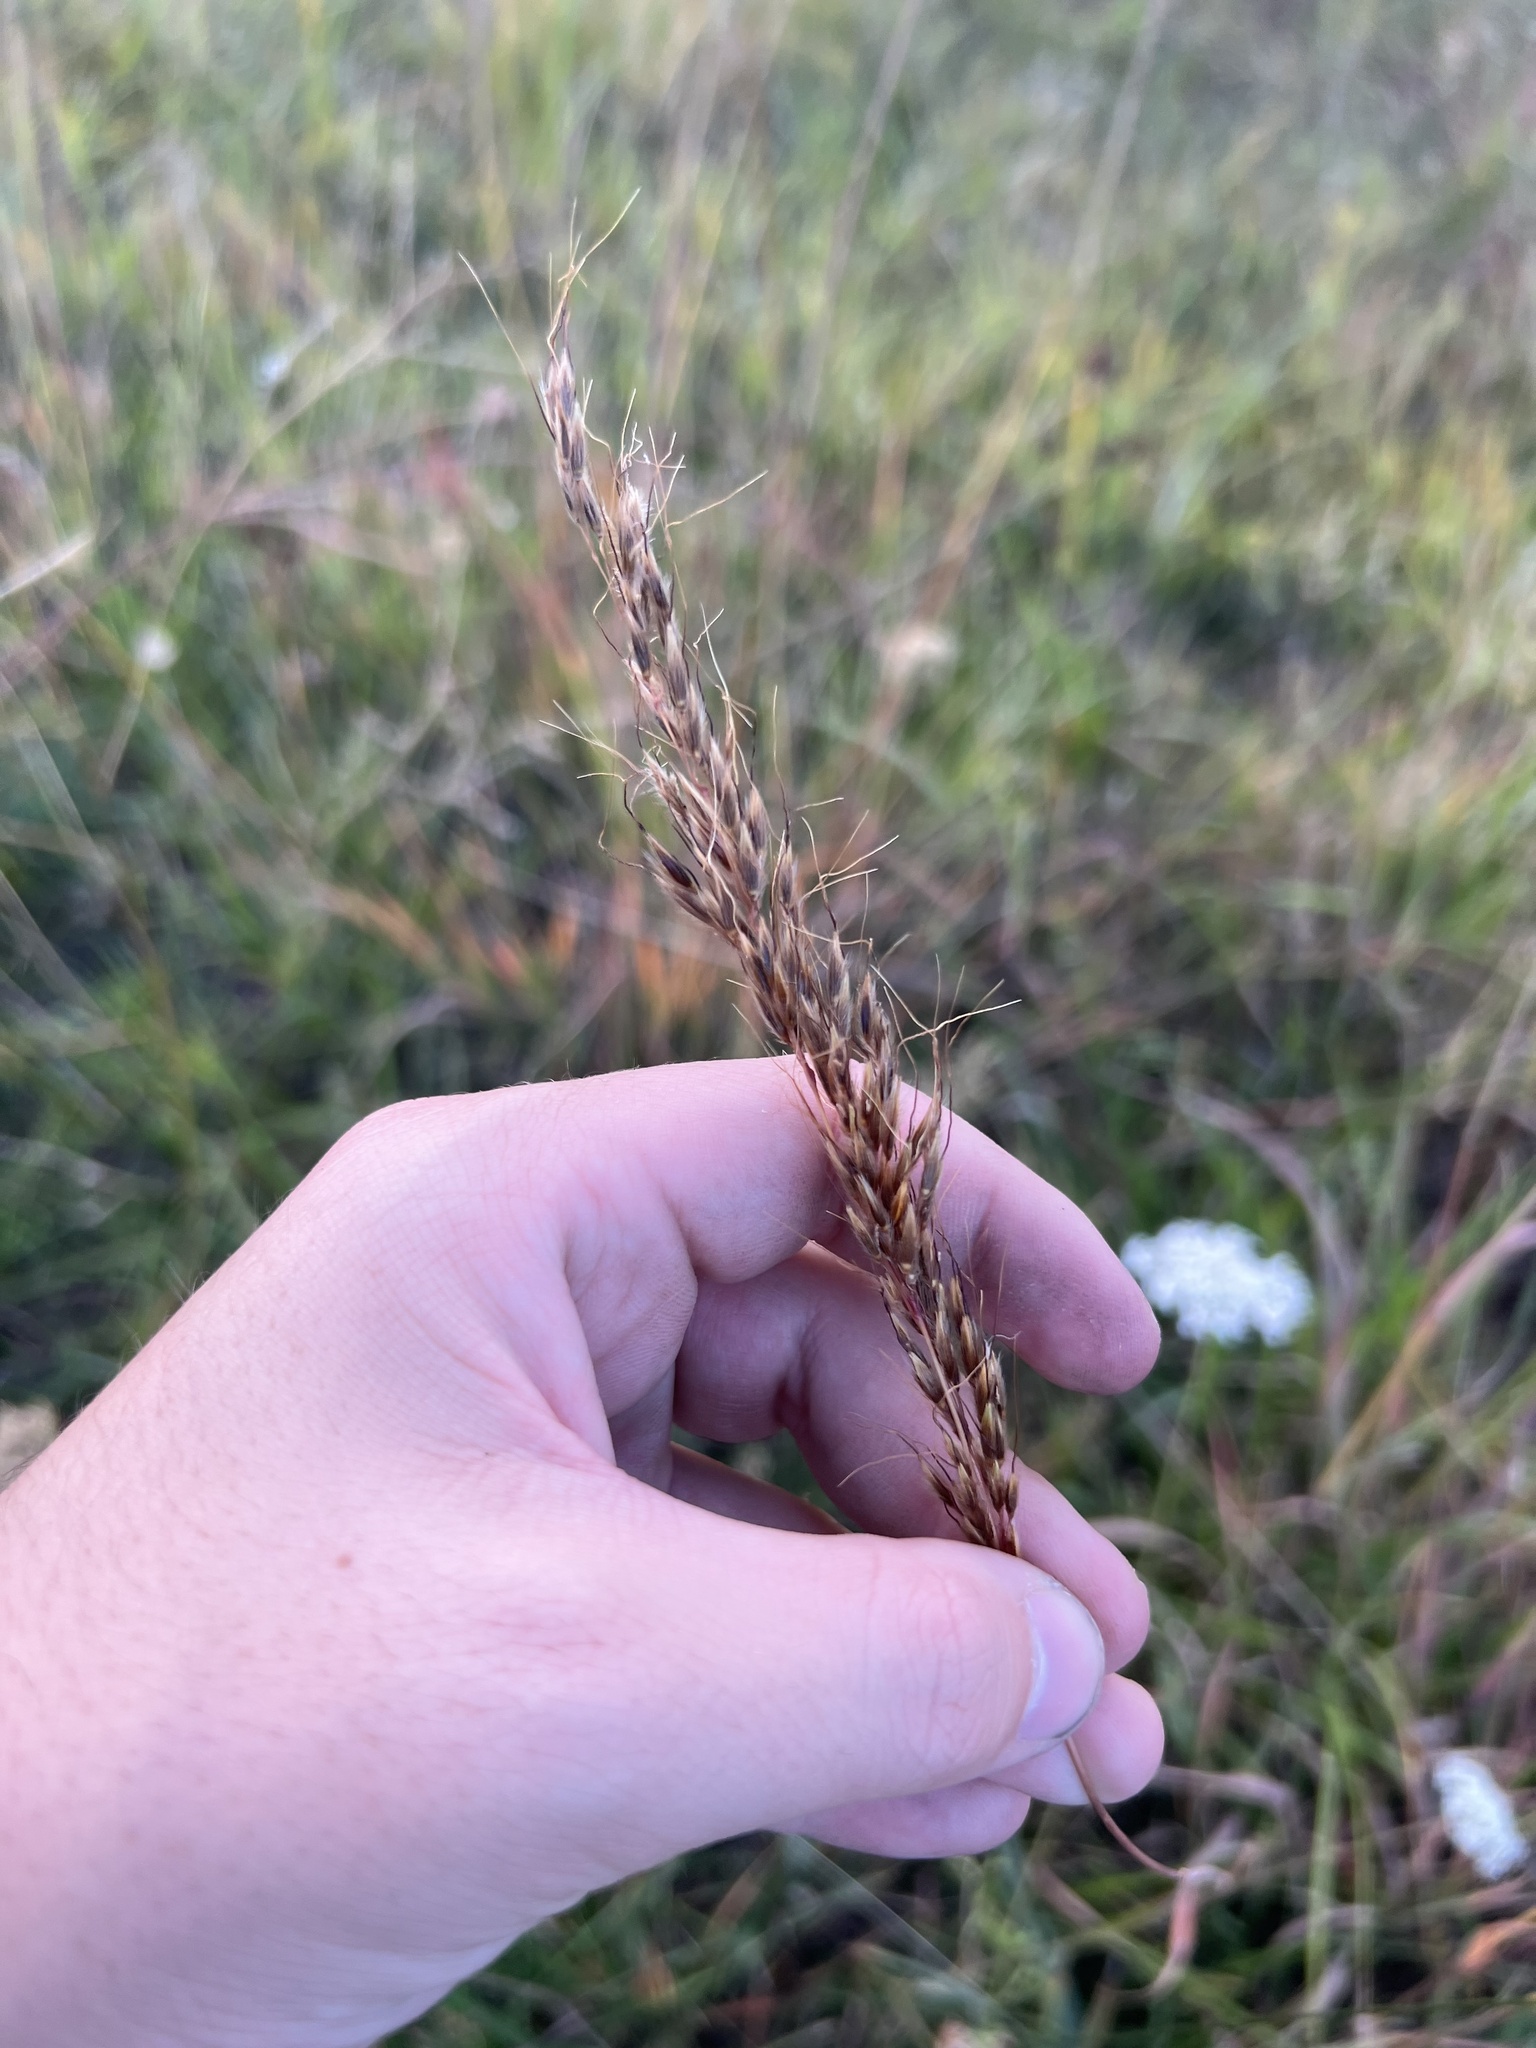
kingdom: Plantae
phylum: Tracheophyta
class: Liliopsida
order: Poales
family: Poaceae
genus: Sorghastrum
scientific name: Sorghastrum nutans
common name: Indian grass
